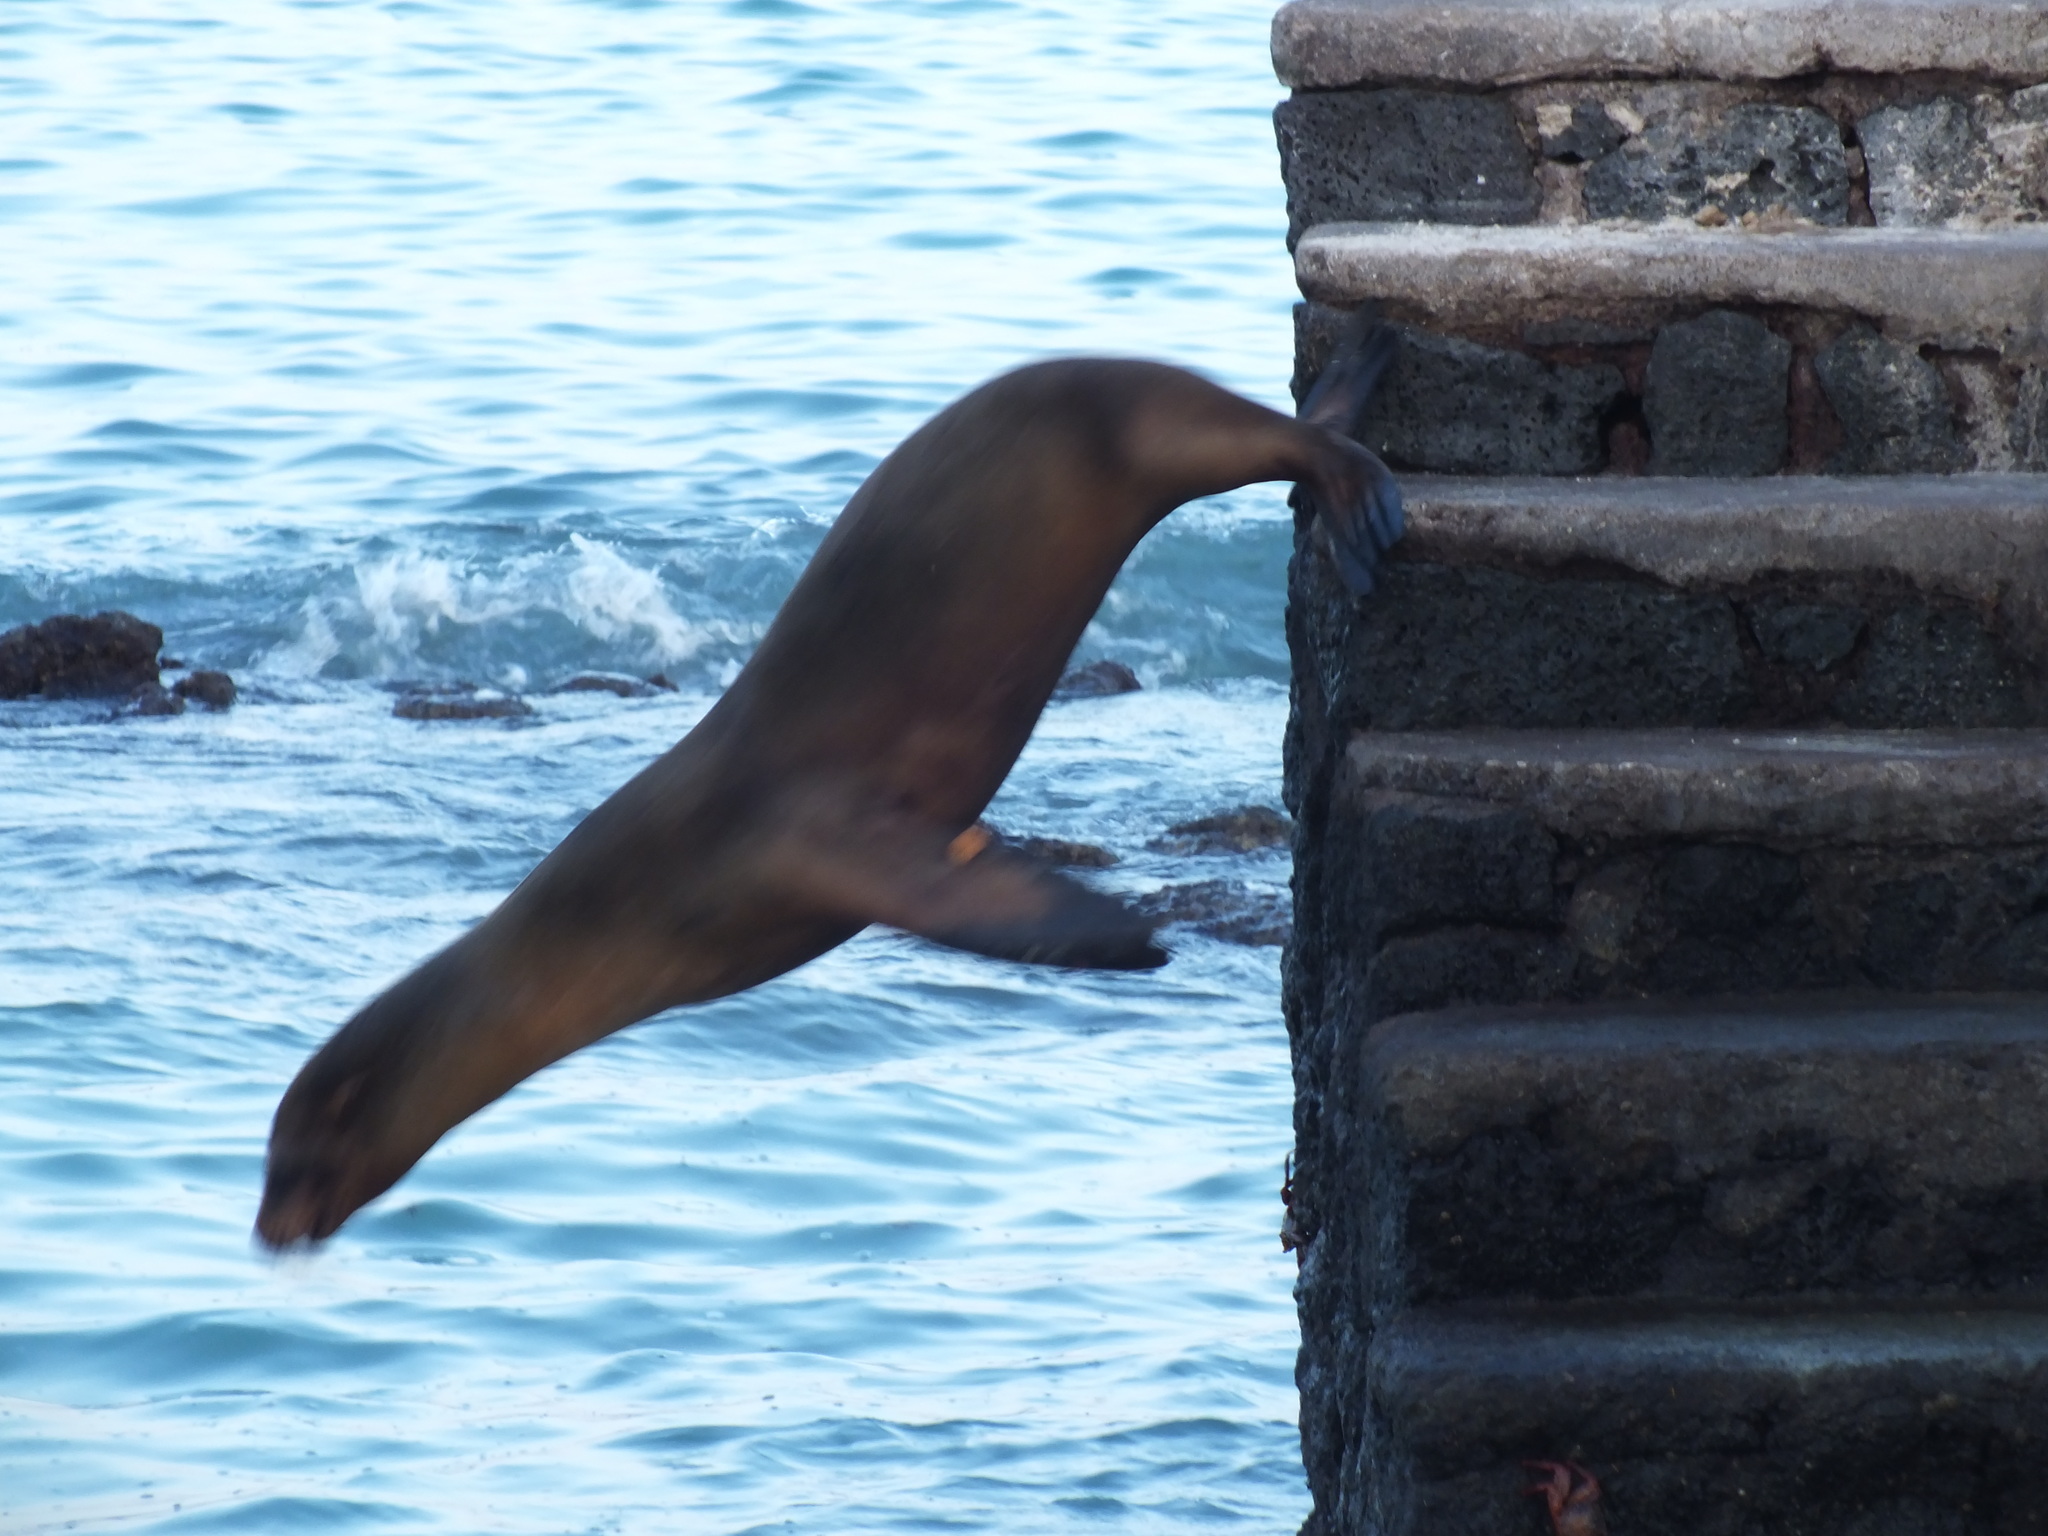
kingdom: Animalia
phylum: Chordata
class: Mammalia
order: Carnivora
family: Otariidae
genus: Zalophus
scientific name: Zalophus wollebaeki
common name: Galapagos sea lion
